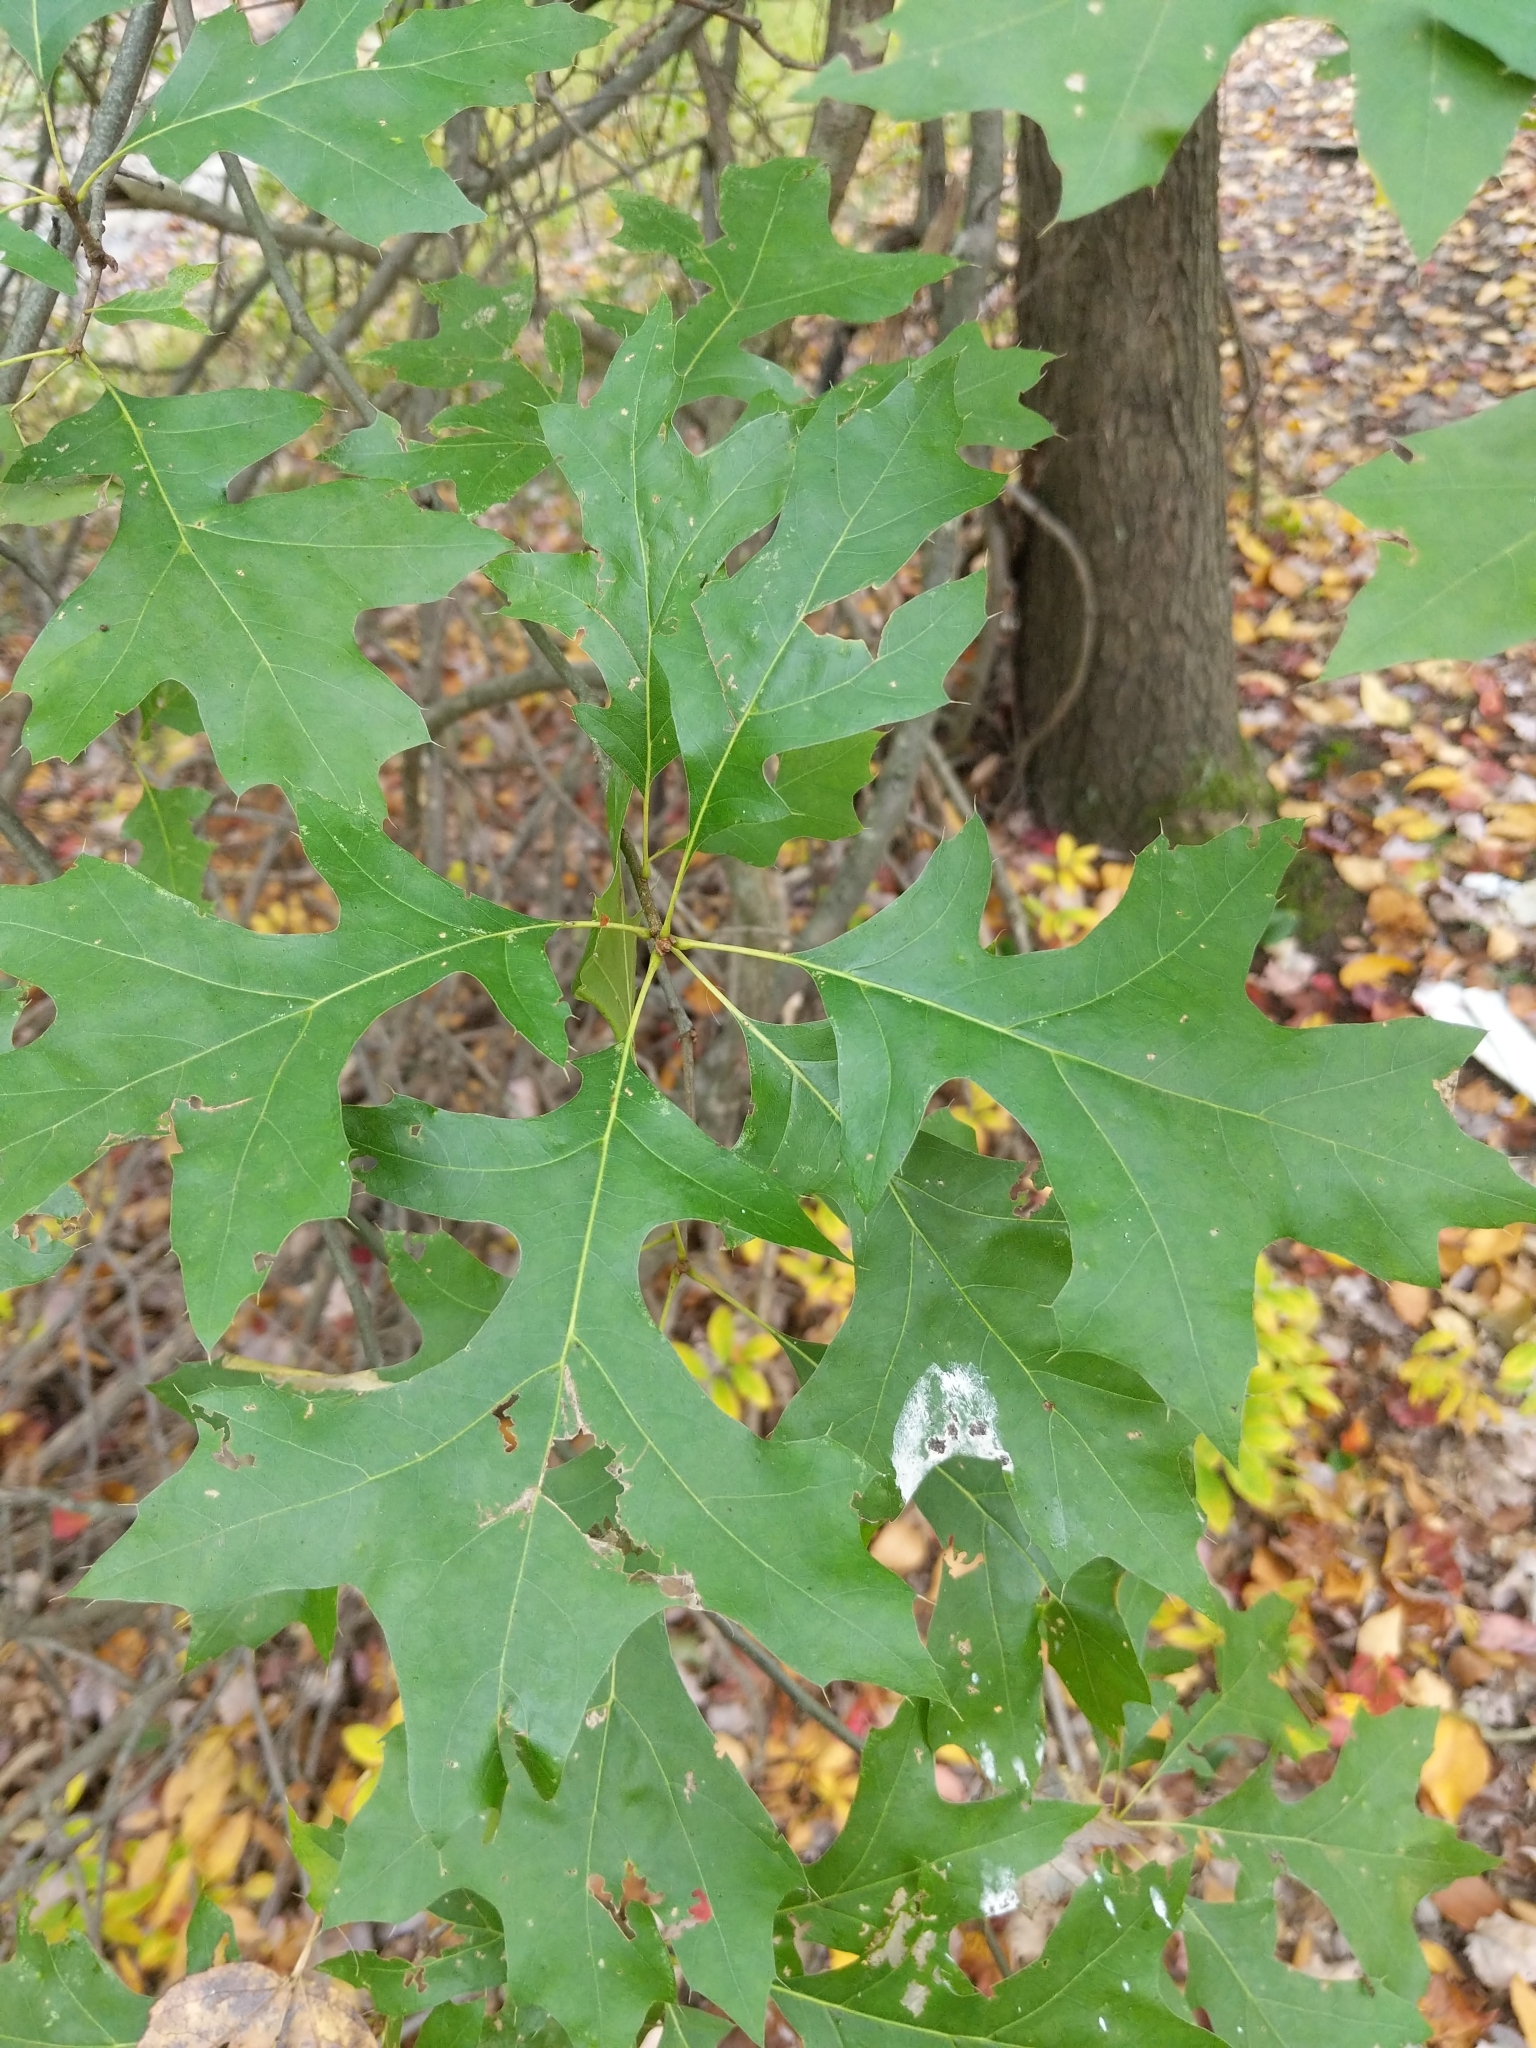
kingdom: Plantae
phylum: Tracheophyta
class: Magnoliopsida
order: Fagales
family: Fagaceae
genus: Quercus
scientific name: Quercus palustris
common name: Pin oak
